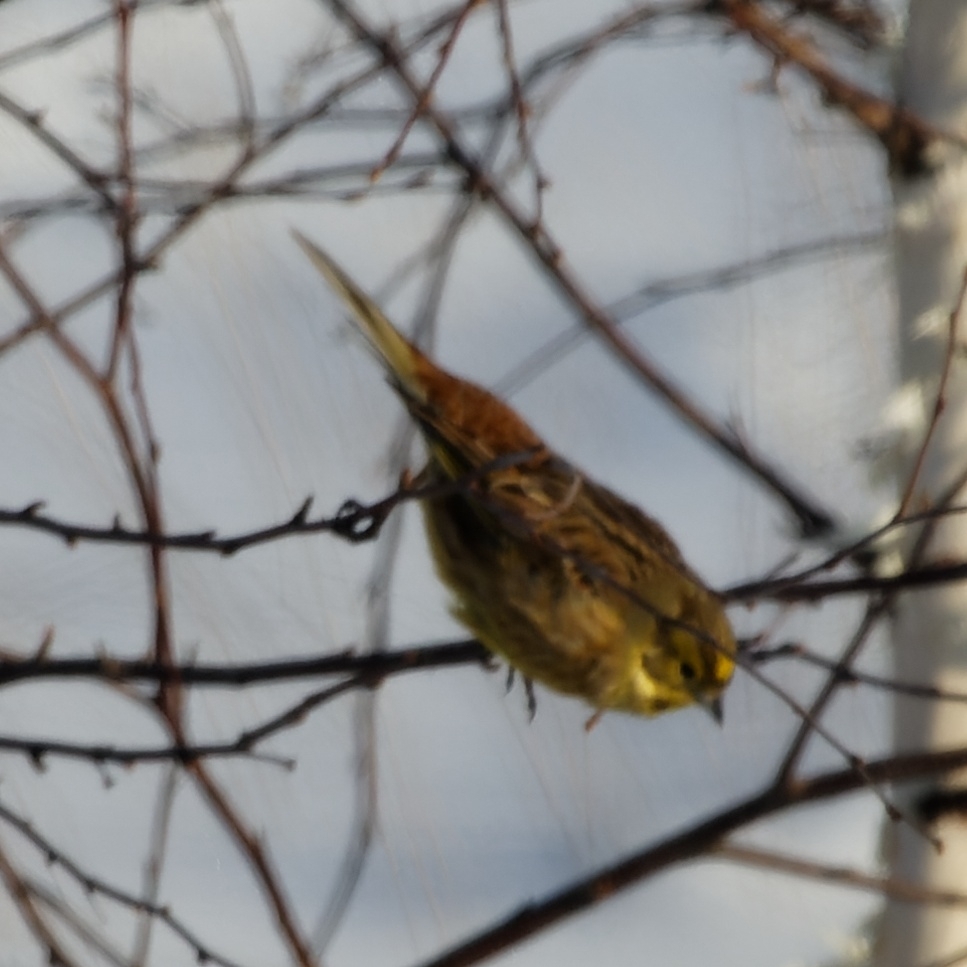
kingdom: Animalia
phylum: Chordata
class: Aves
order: Passeriformes
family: Emberizidae
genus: Emberiza
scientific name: Emberiza citrinella
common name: Yellowhammer
